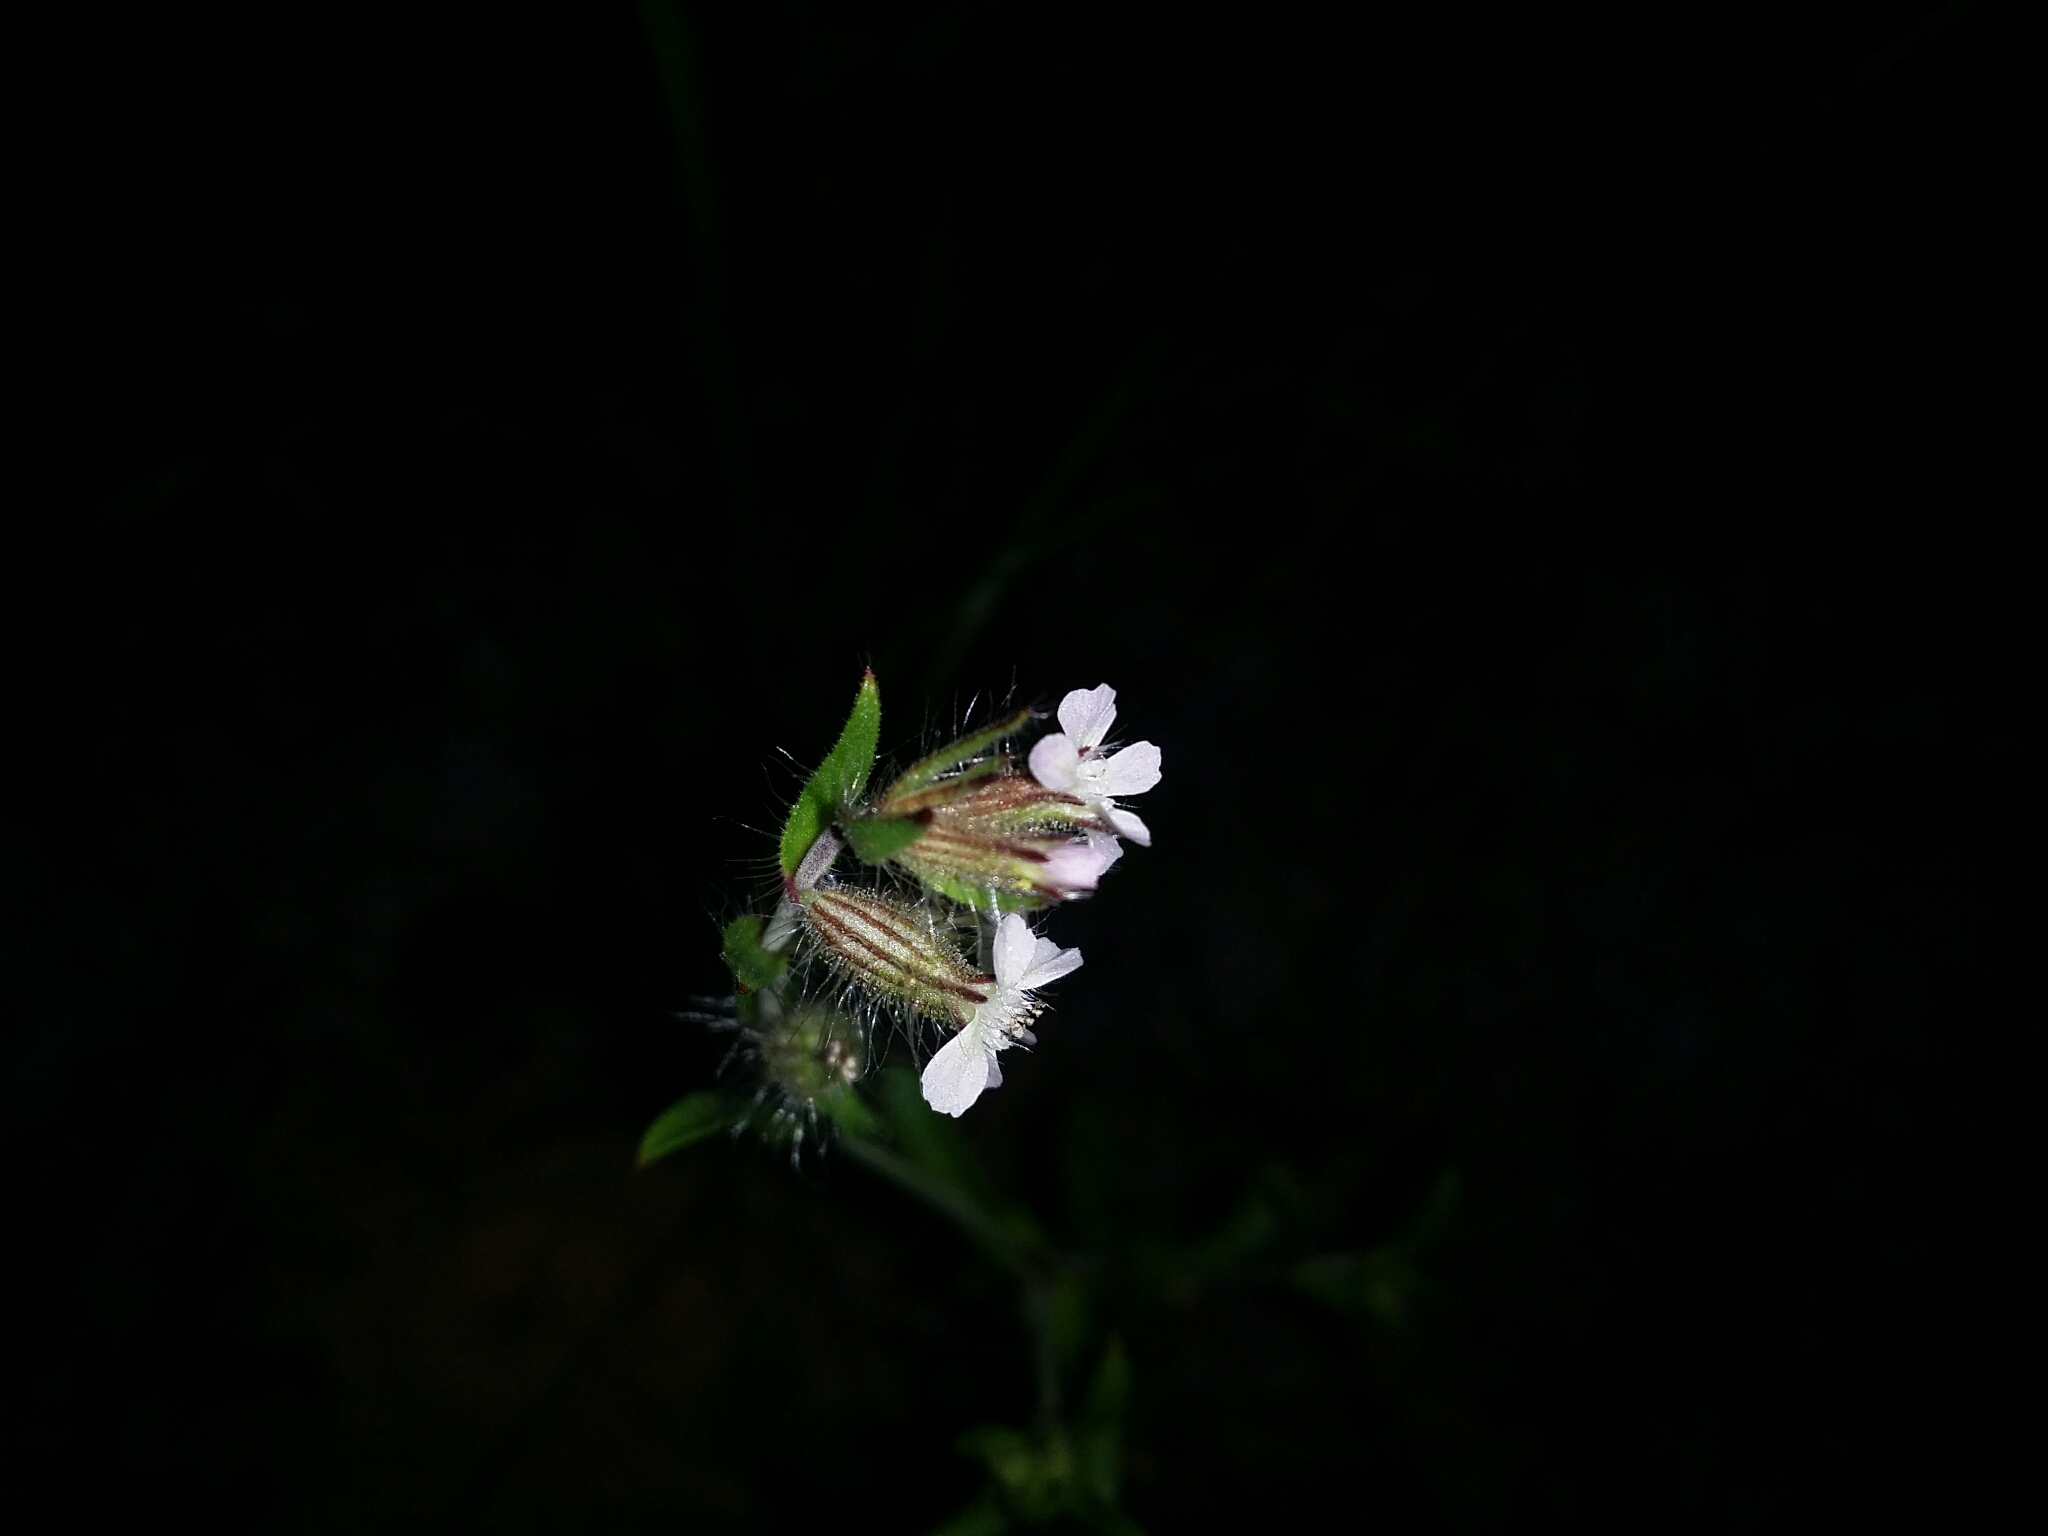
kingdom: Plantae
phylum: Tracheophyta
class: Magnoliopsida
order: Caryophyllales
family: Caryophyllaceae
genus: Silene
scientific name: Silene gallica
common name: Small-flowered catchfly
